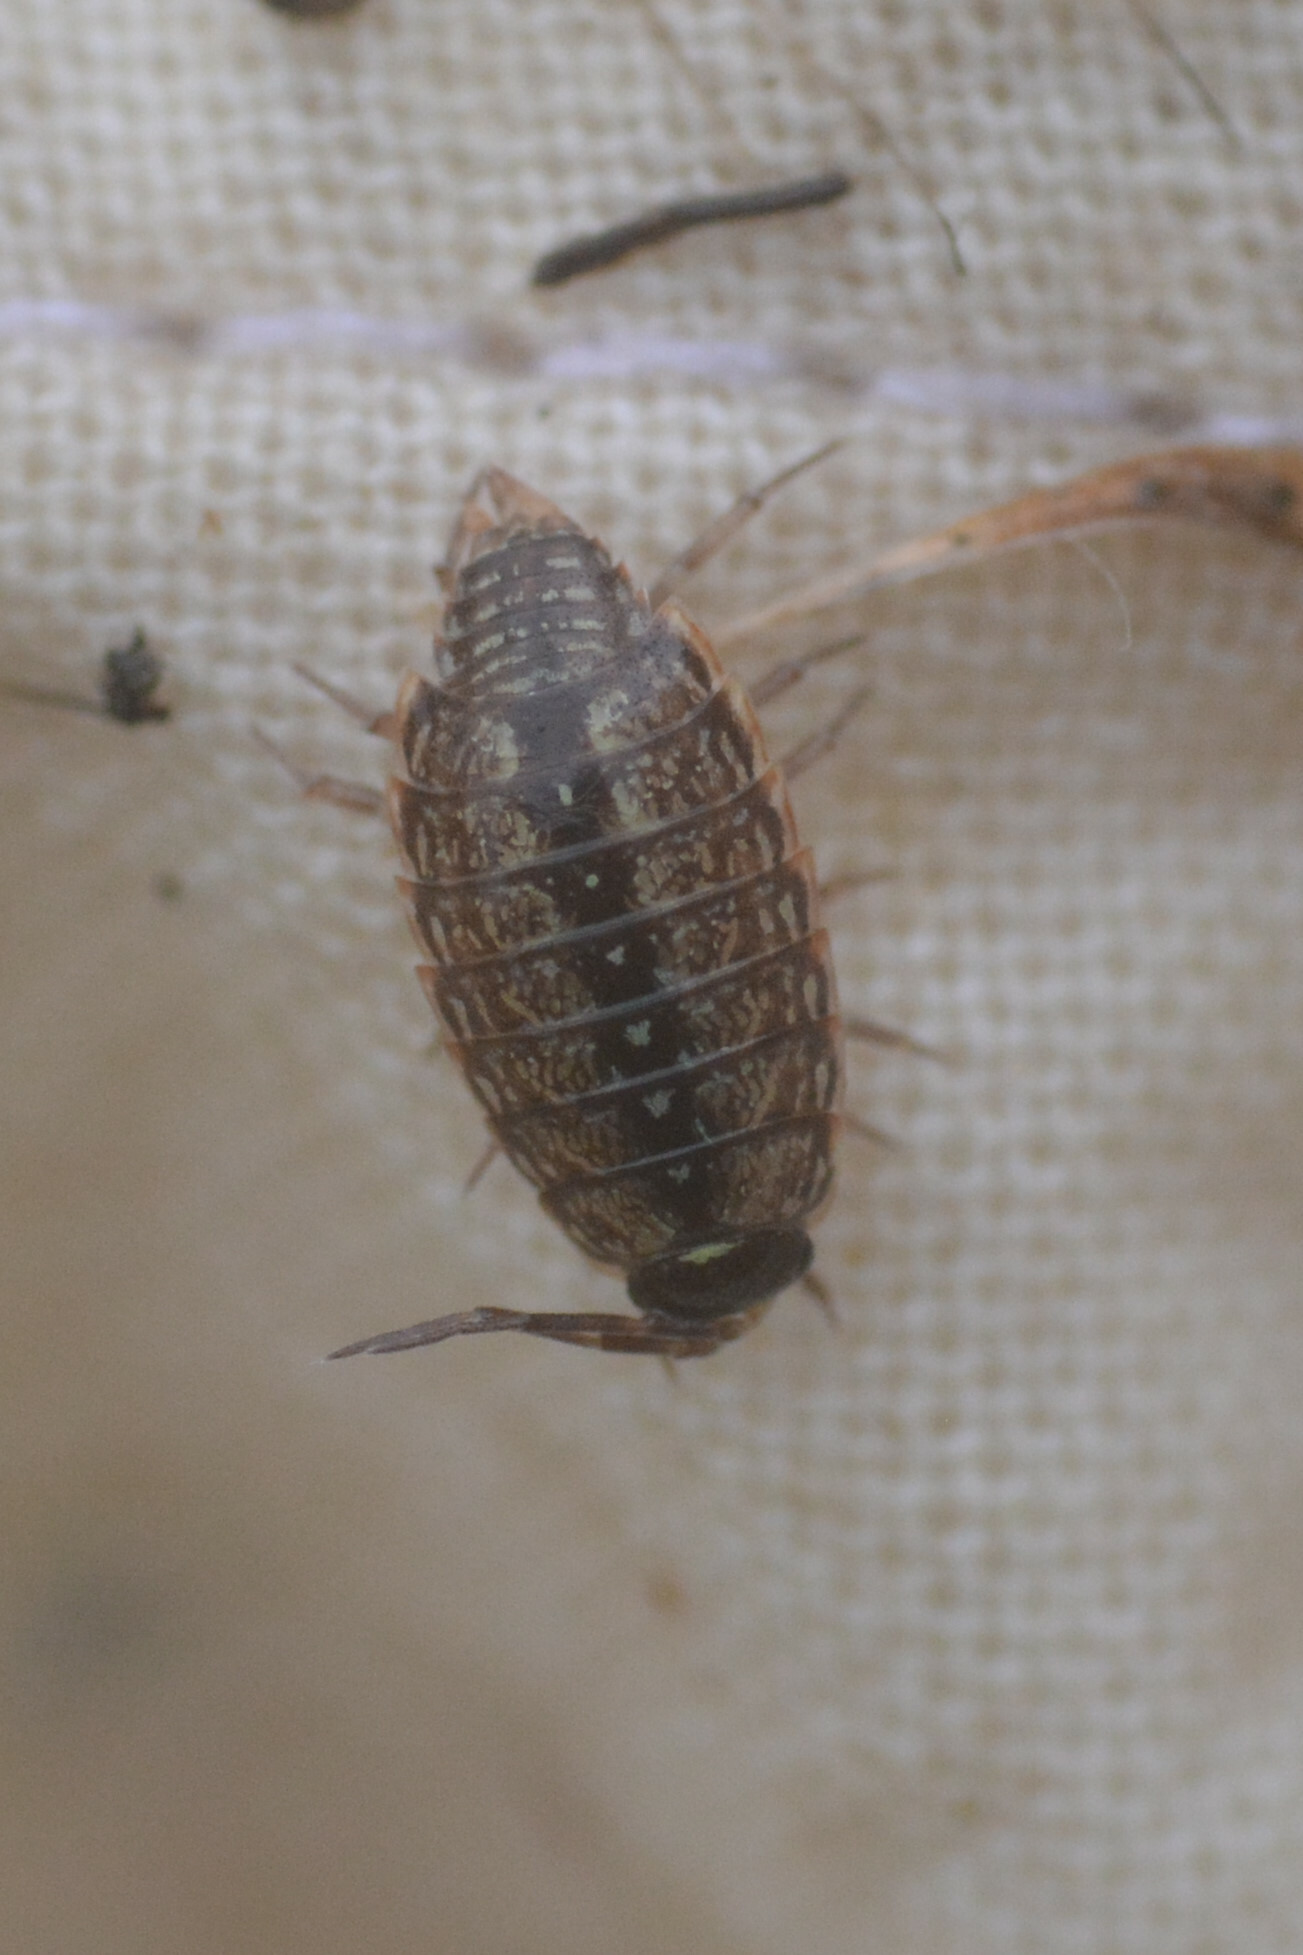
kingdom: Animalia
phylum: Arthropoda
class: Malacostraca
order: Isopoda
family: Philosciidae
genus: Philoscia
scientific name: Philoscia muscorum
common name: Common striped woodlouse
